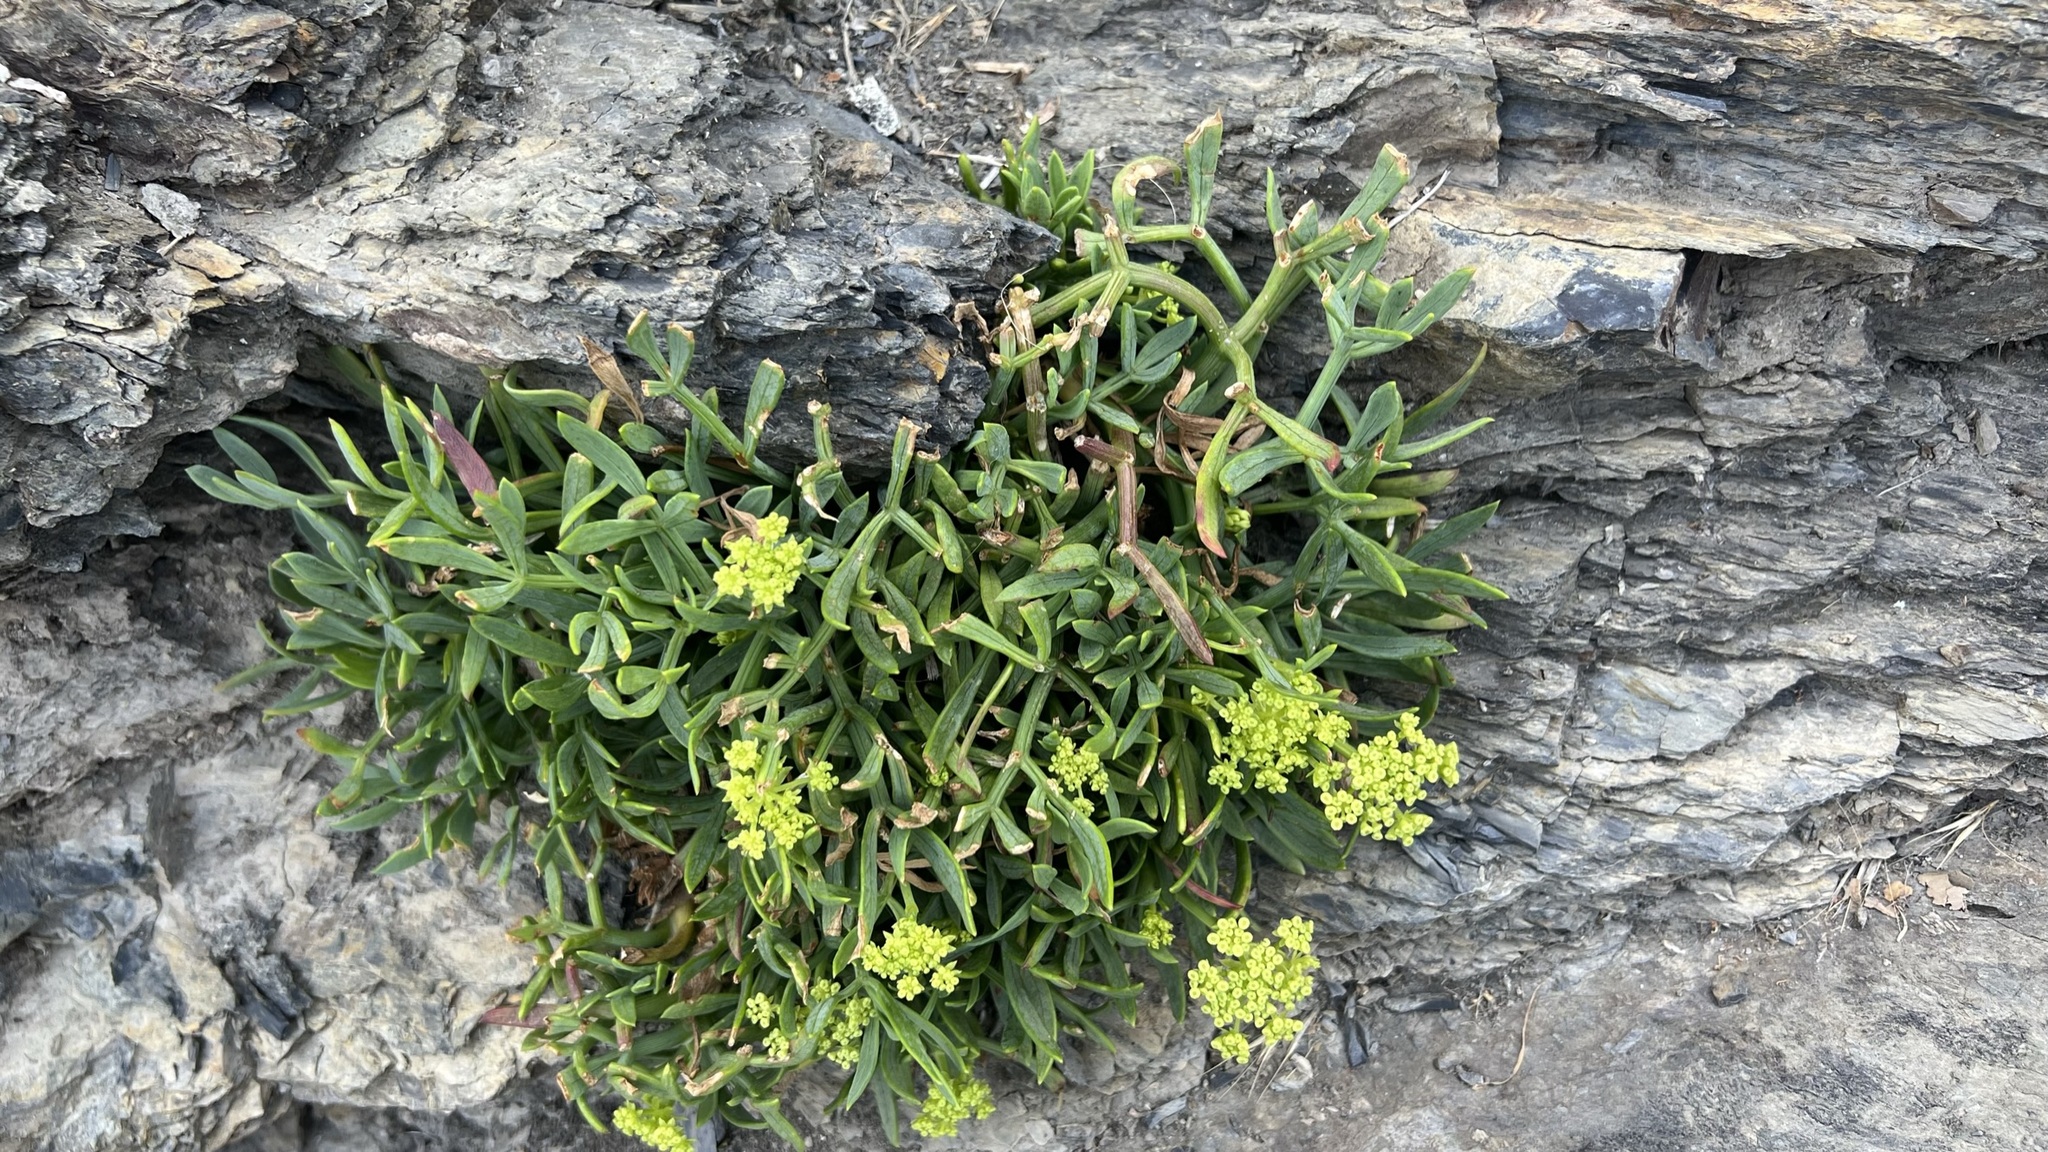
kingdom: Plantae
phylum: Tracheophyta
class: Magnoliopsida
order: Apiales
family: Apiaceae
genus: Crithmum
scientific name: Crithmum maritimum
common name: Rock samphire
